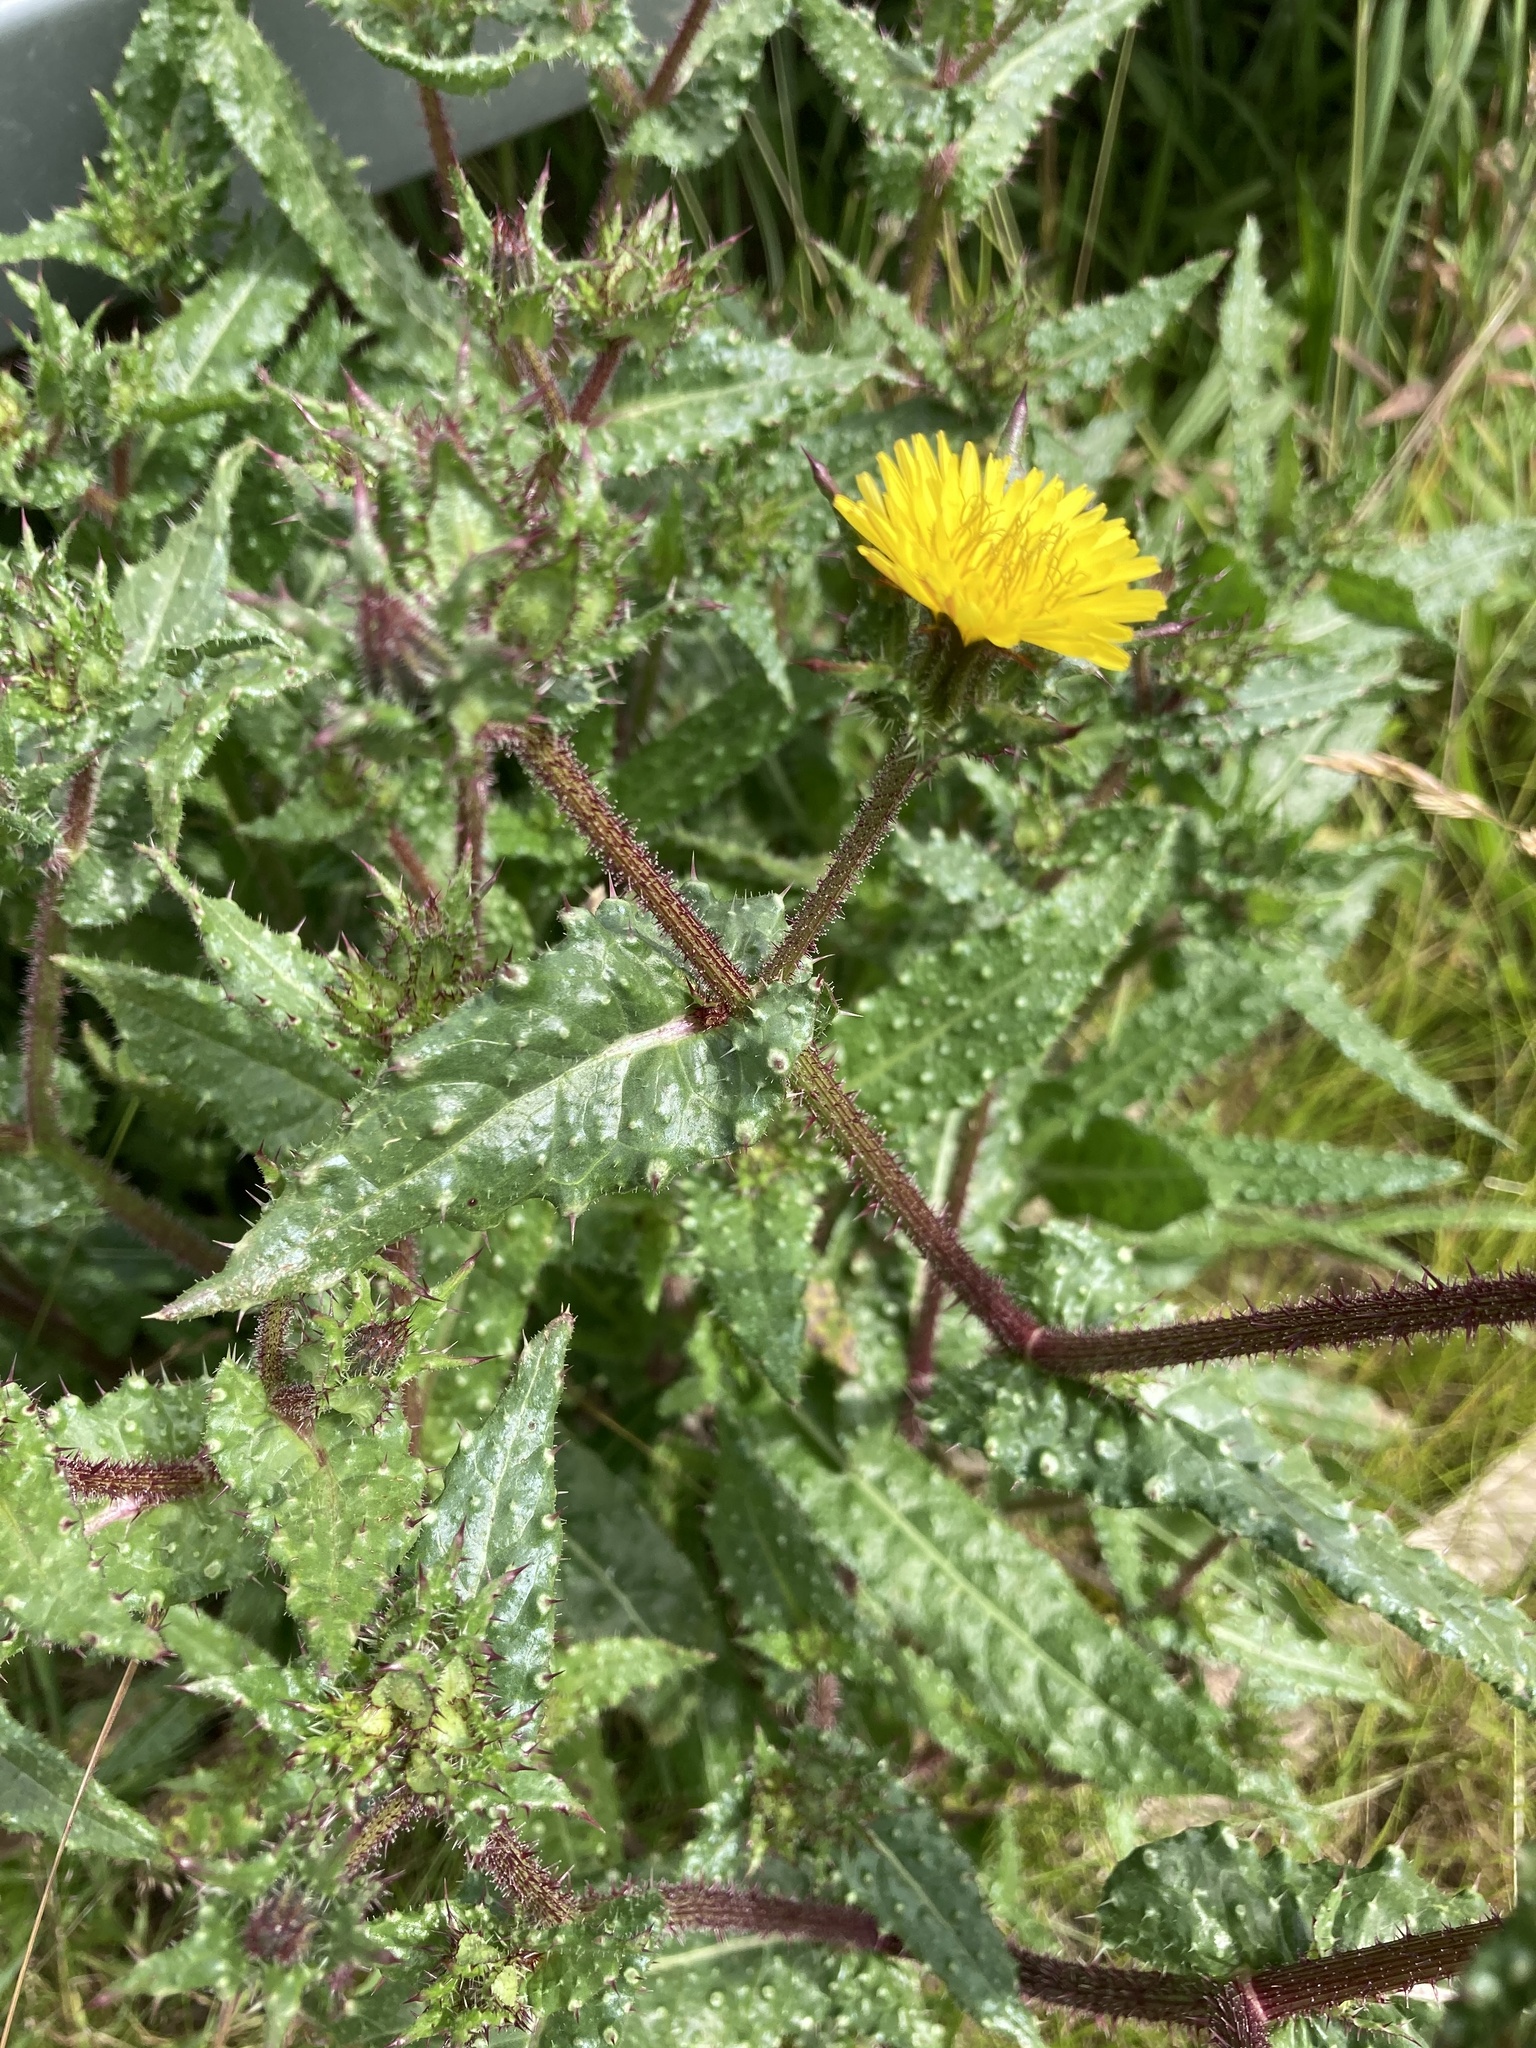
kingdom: Plantae
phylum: Tracheophyta
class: Magnoliopsida
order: Asterales
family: Asteraceae
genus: Helminthotheca
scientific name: Helminthotheca echioides
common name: Ox-tongue
